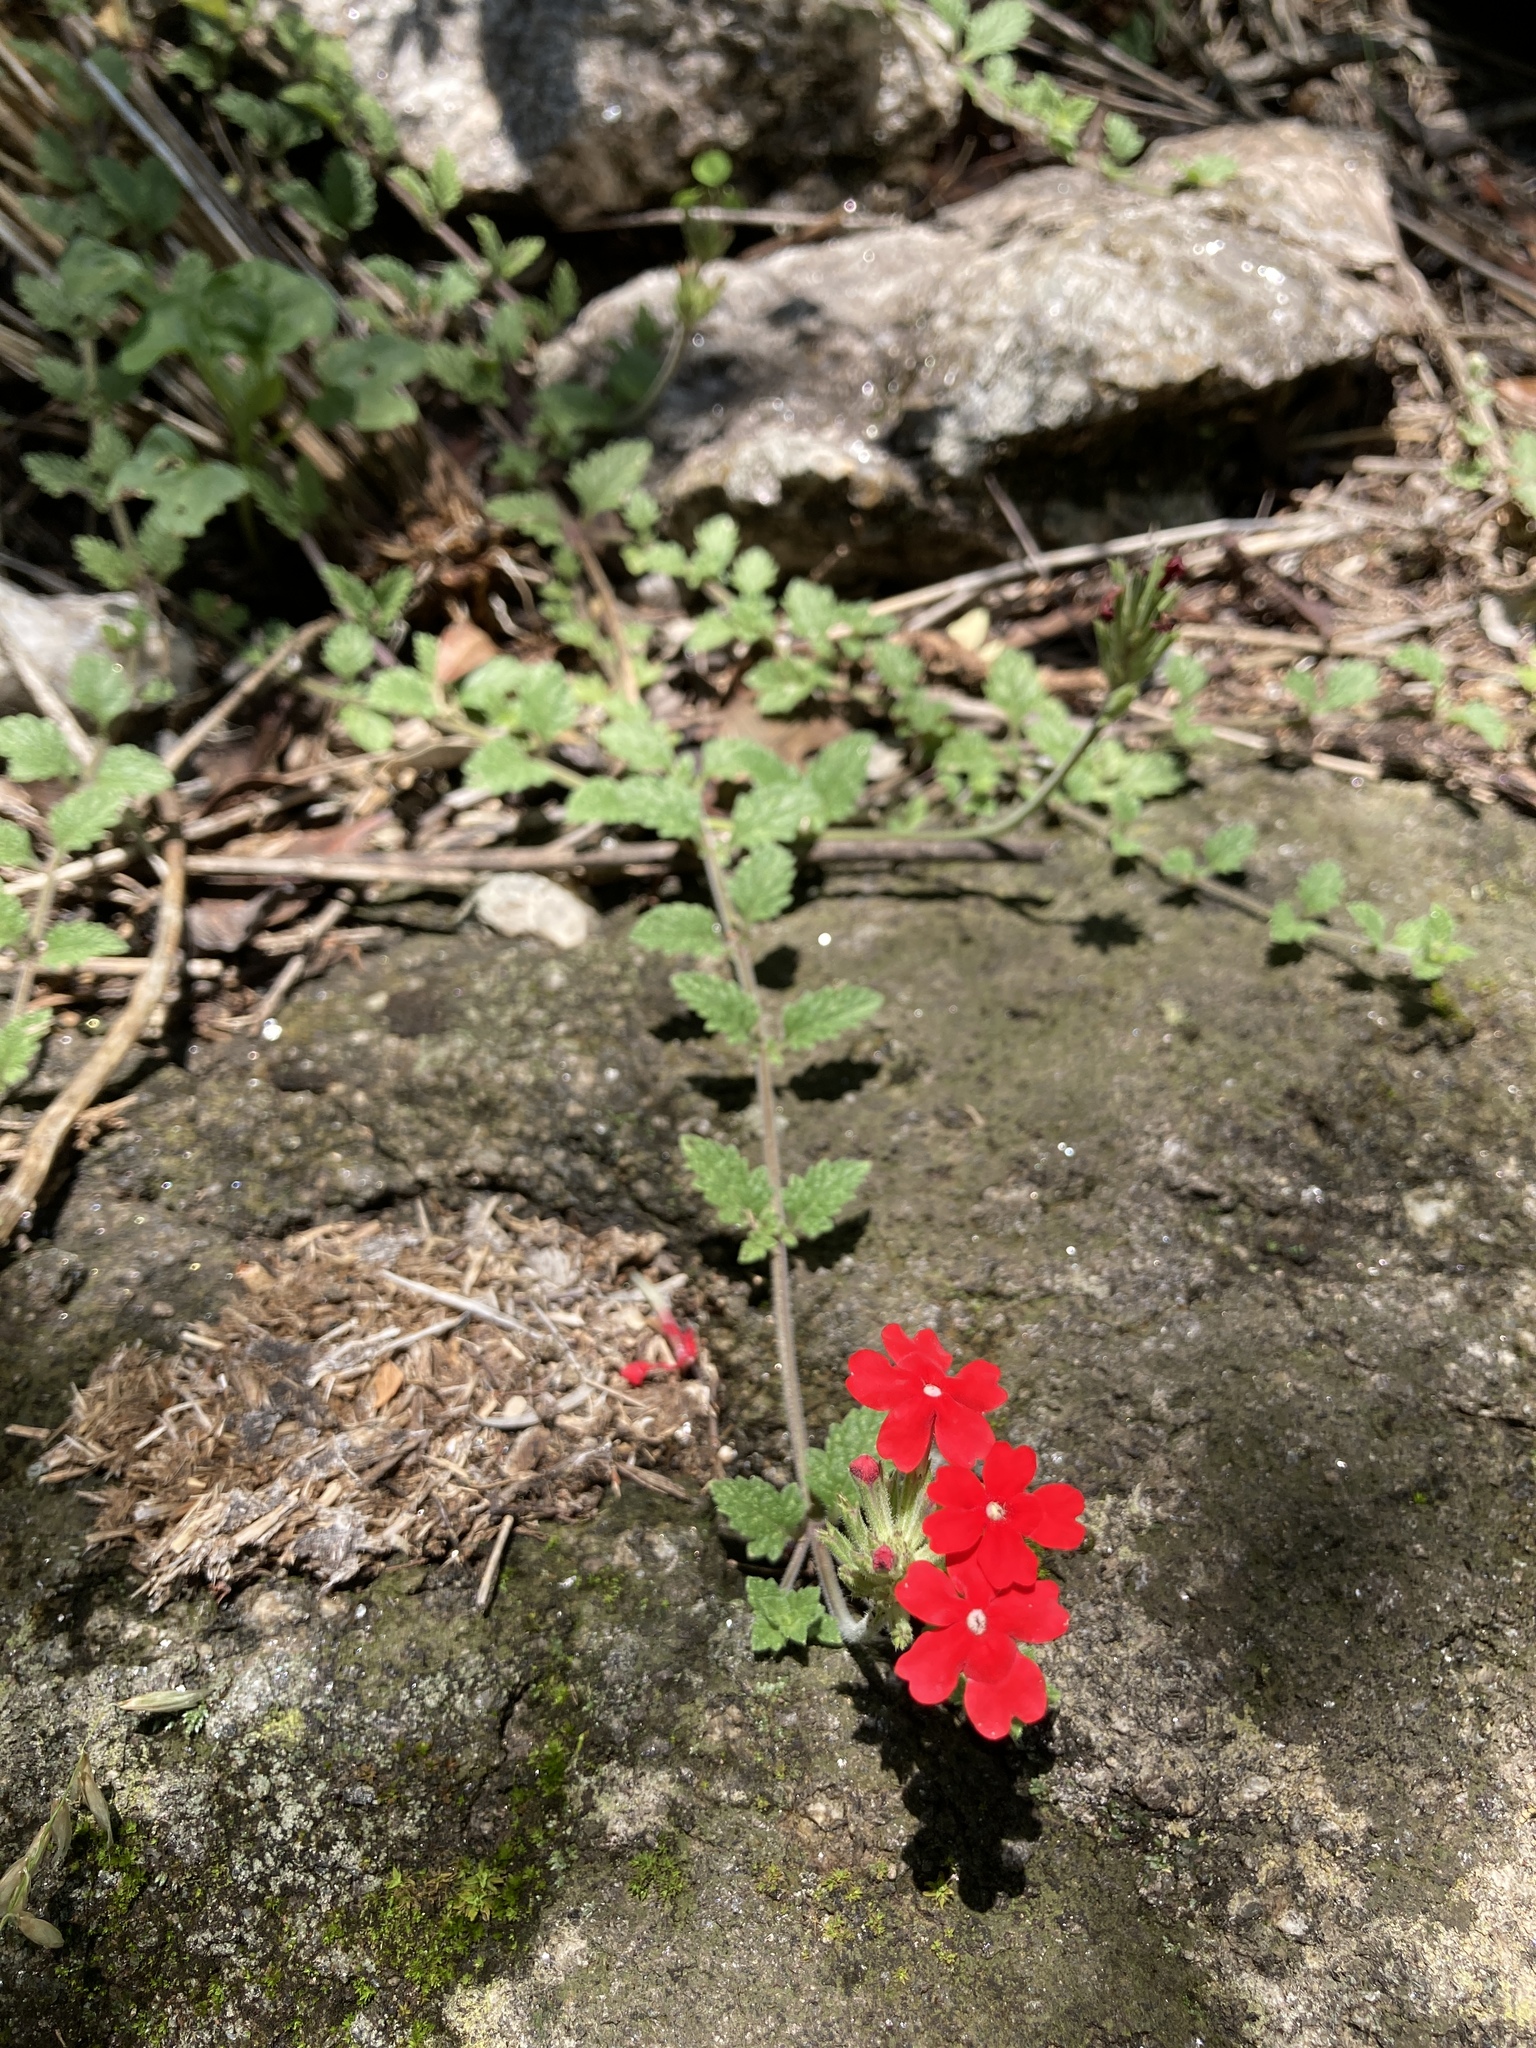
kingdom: Plantae
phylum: Tracheophyta
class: Magnoliopsida
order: Lamiales
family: Verbenaceae
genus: Verbena
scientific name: Verbena peruviana
